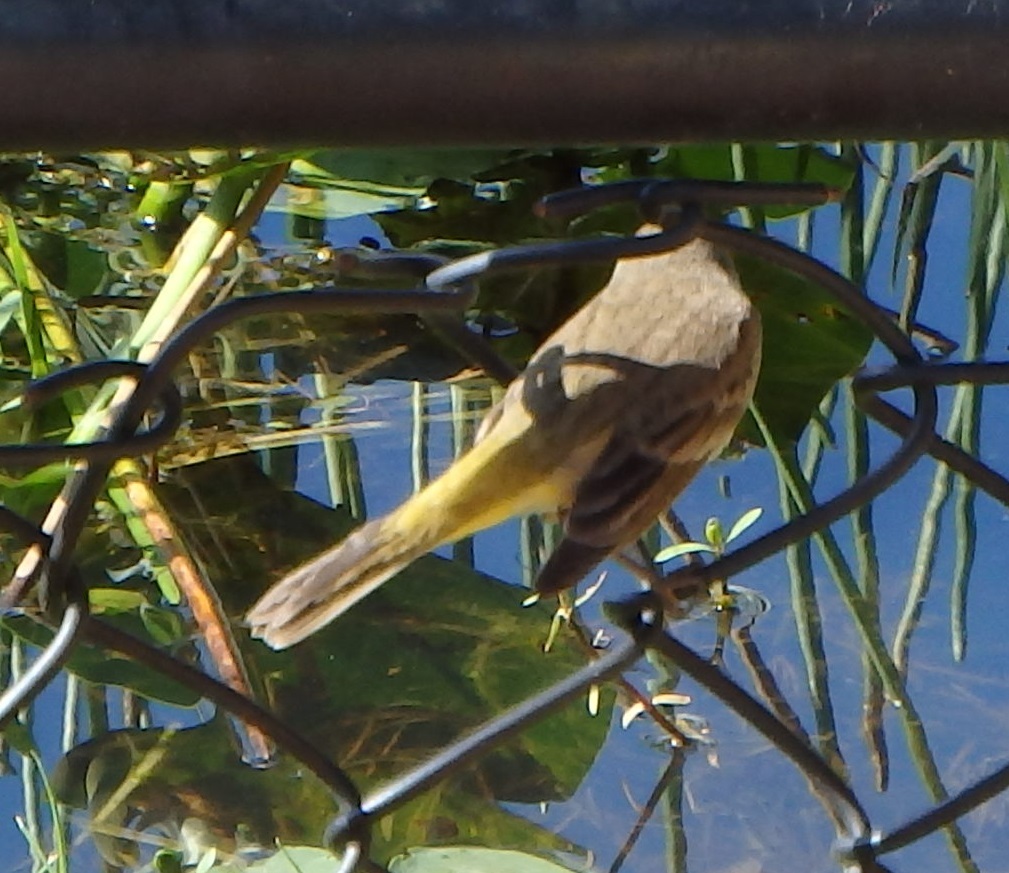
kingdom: Animalia
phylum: Chordata
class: Aves
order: Passeriformes
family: Parulidae
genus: Setophaga
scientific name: Setophaga palmarum
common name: Palm warbler
